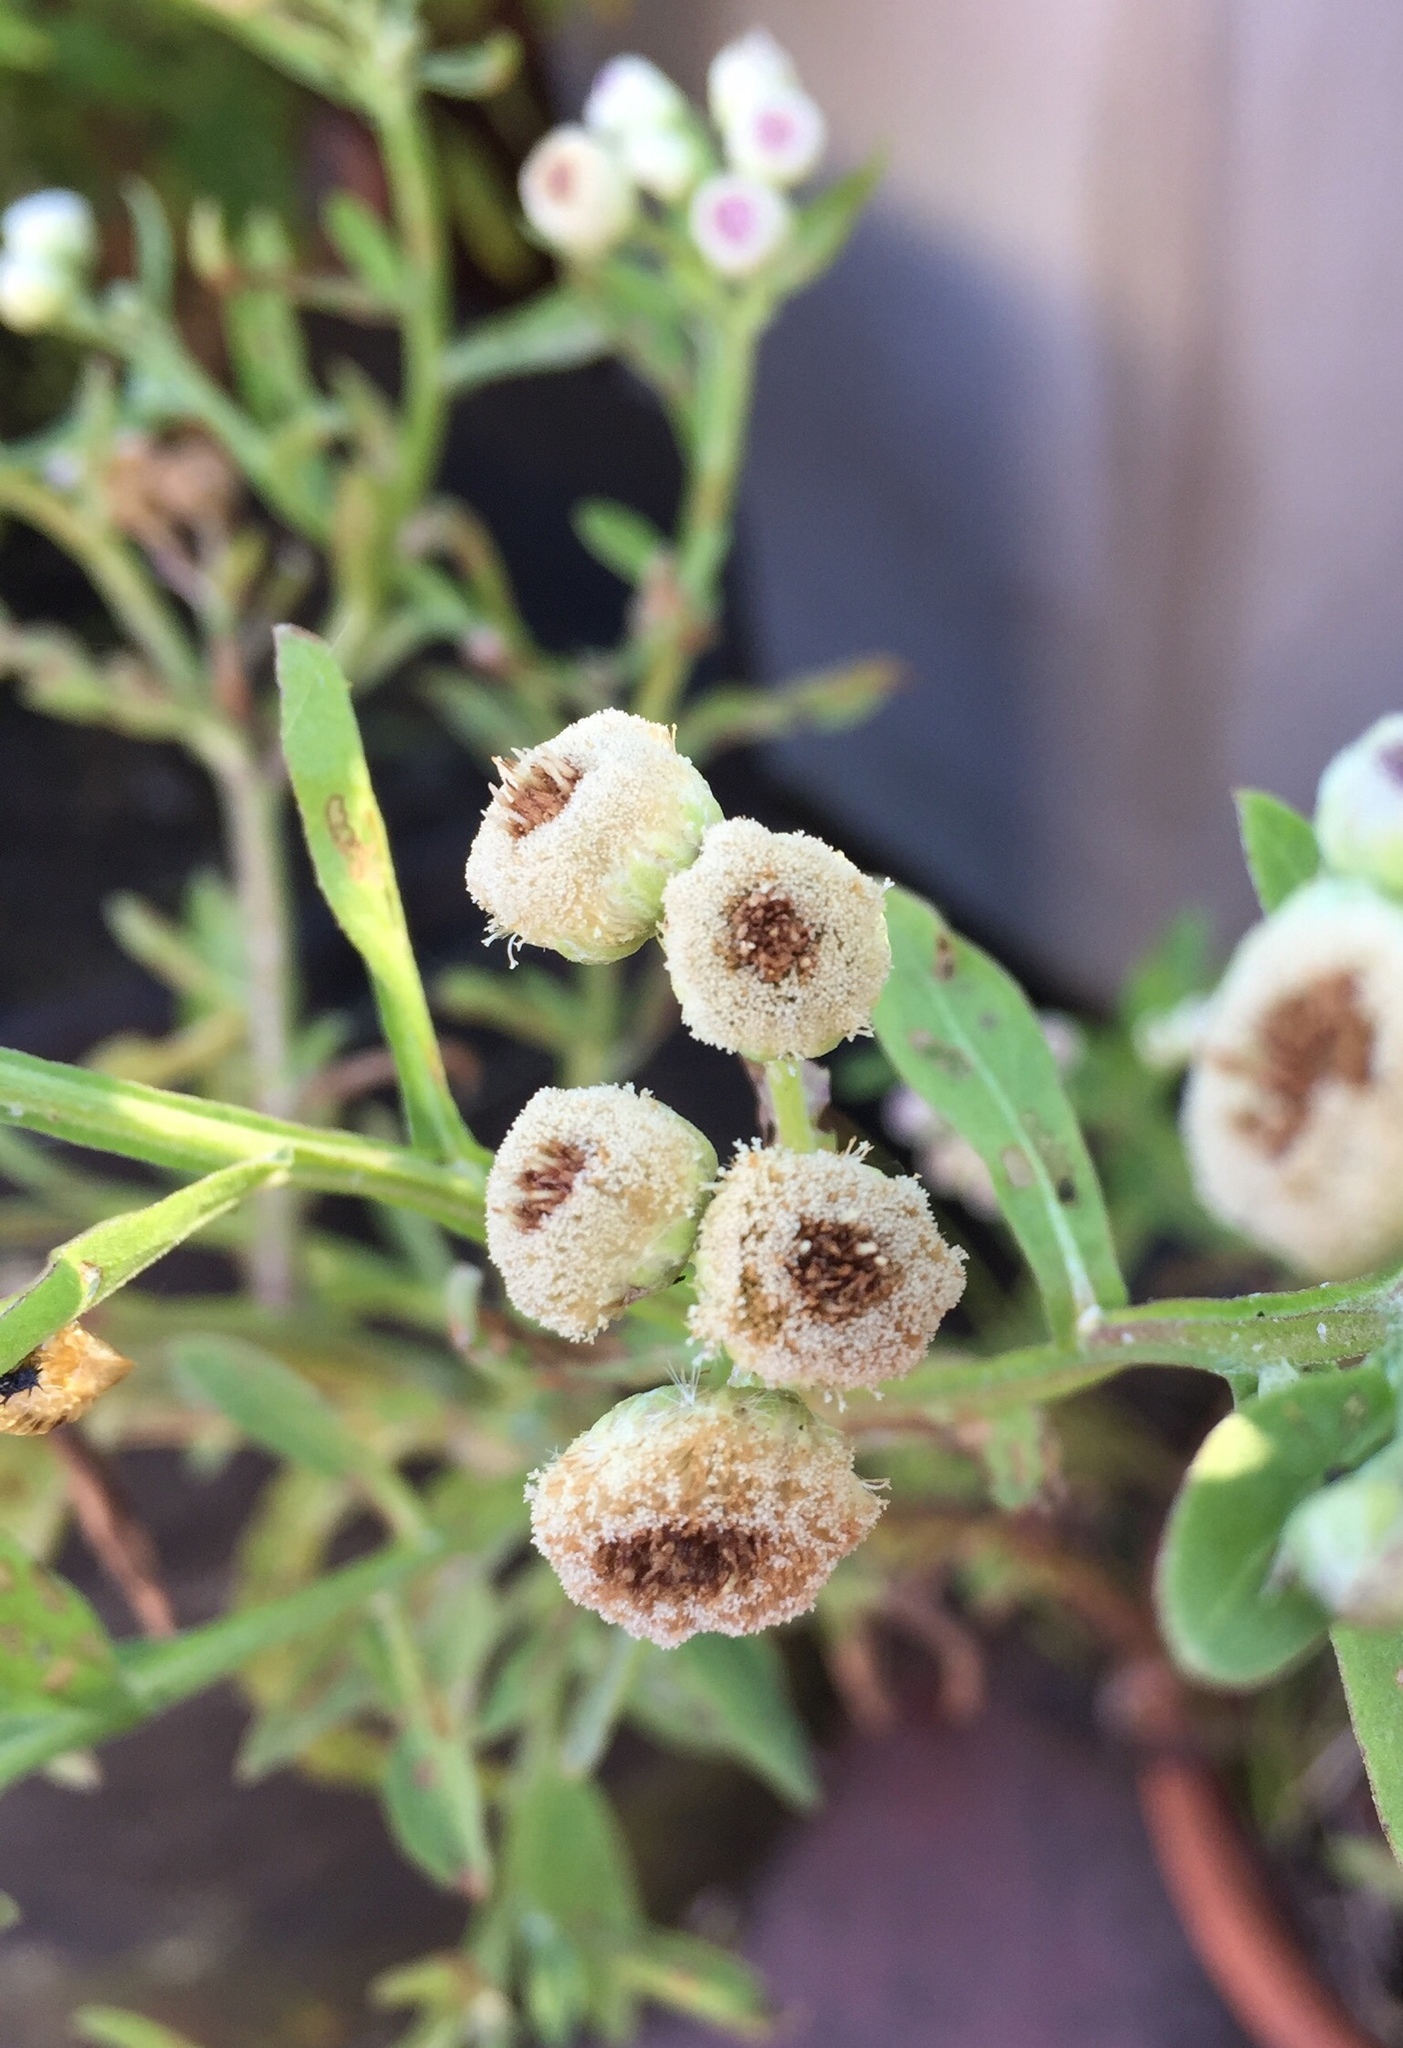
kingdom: Plantae
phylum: Tracheophyta
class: Magnoliopsida
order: Asterales
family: Asteraceae
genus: Pluchea
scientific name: Pluchea sagittalis
